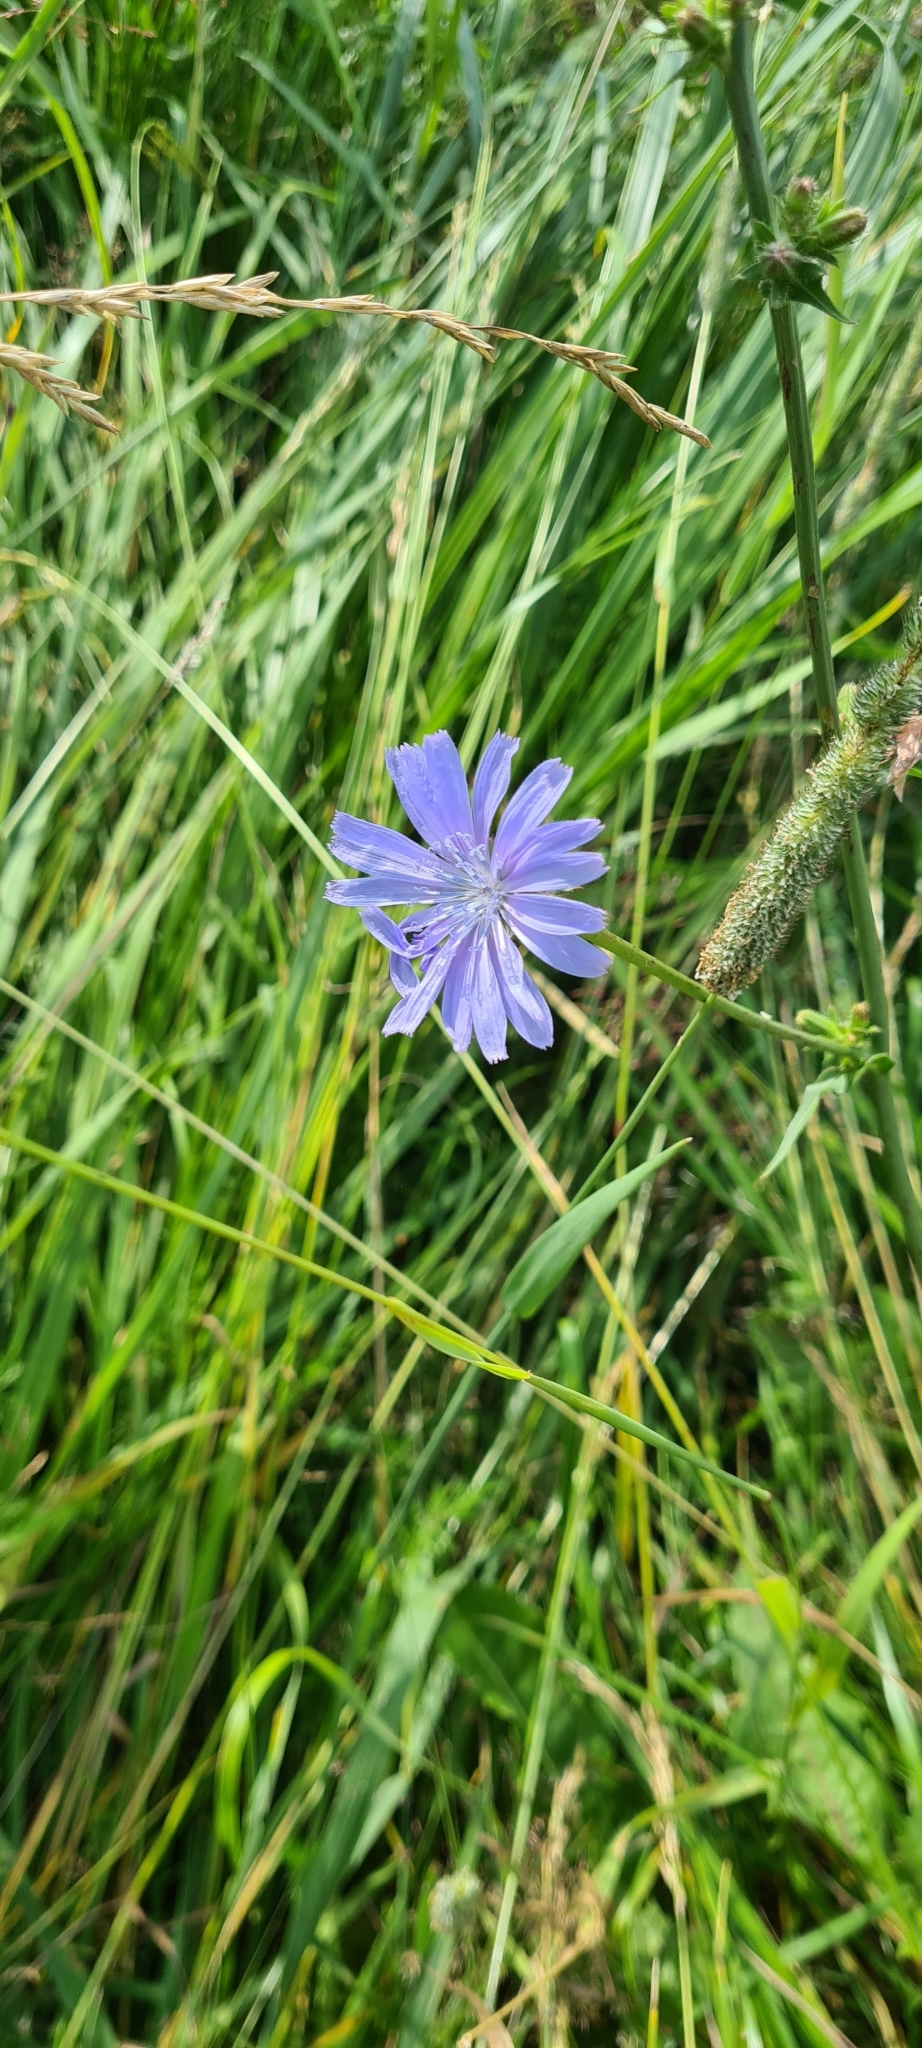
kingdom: Plantae
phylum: Tracheophyta
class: Magnoliopsida
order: Asterales
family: Asteraceae
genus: Cichorium
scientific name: Cichorium intybus
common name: Chicory
